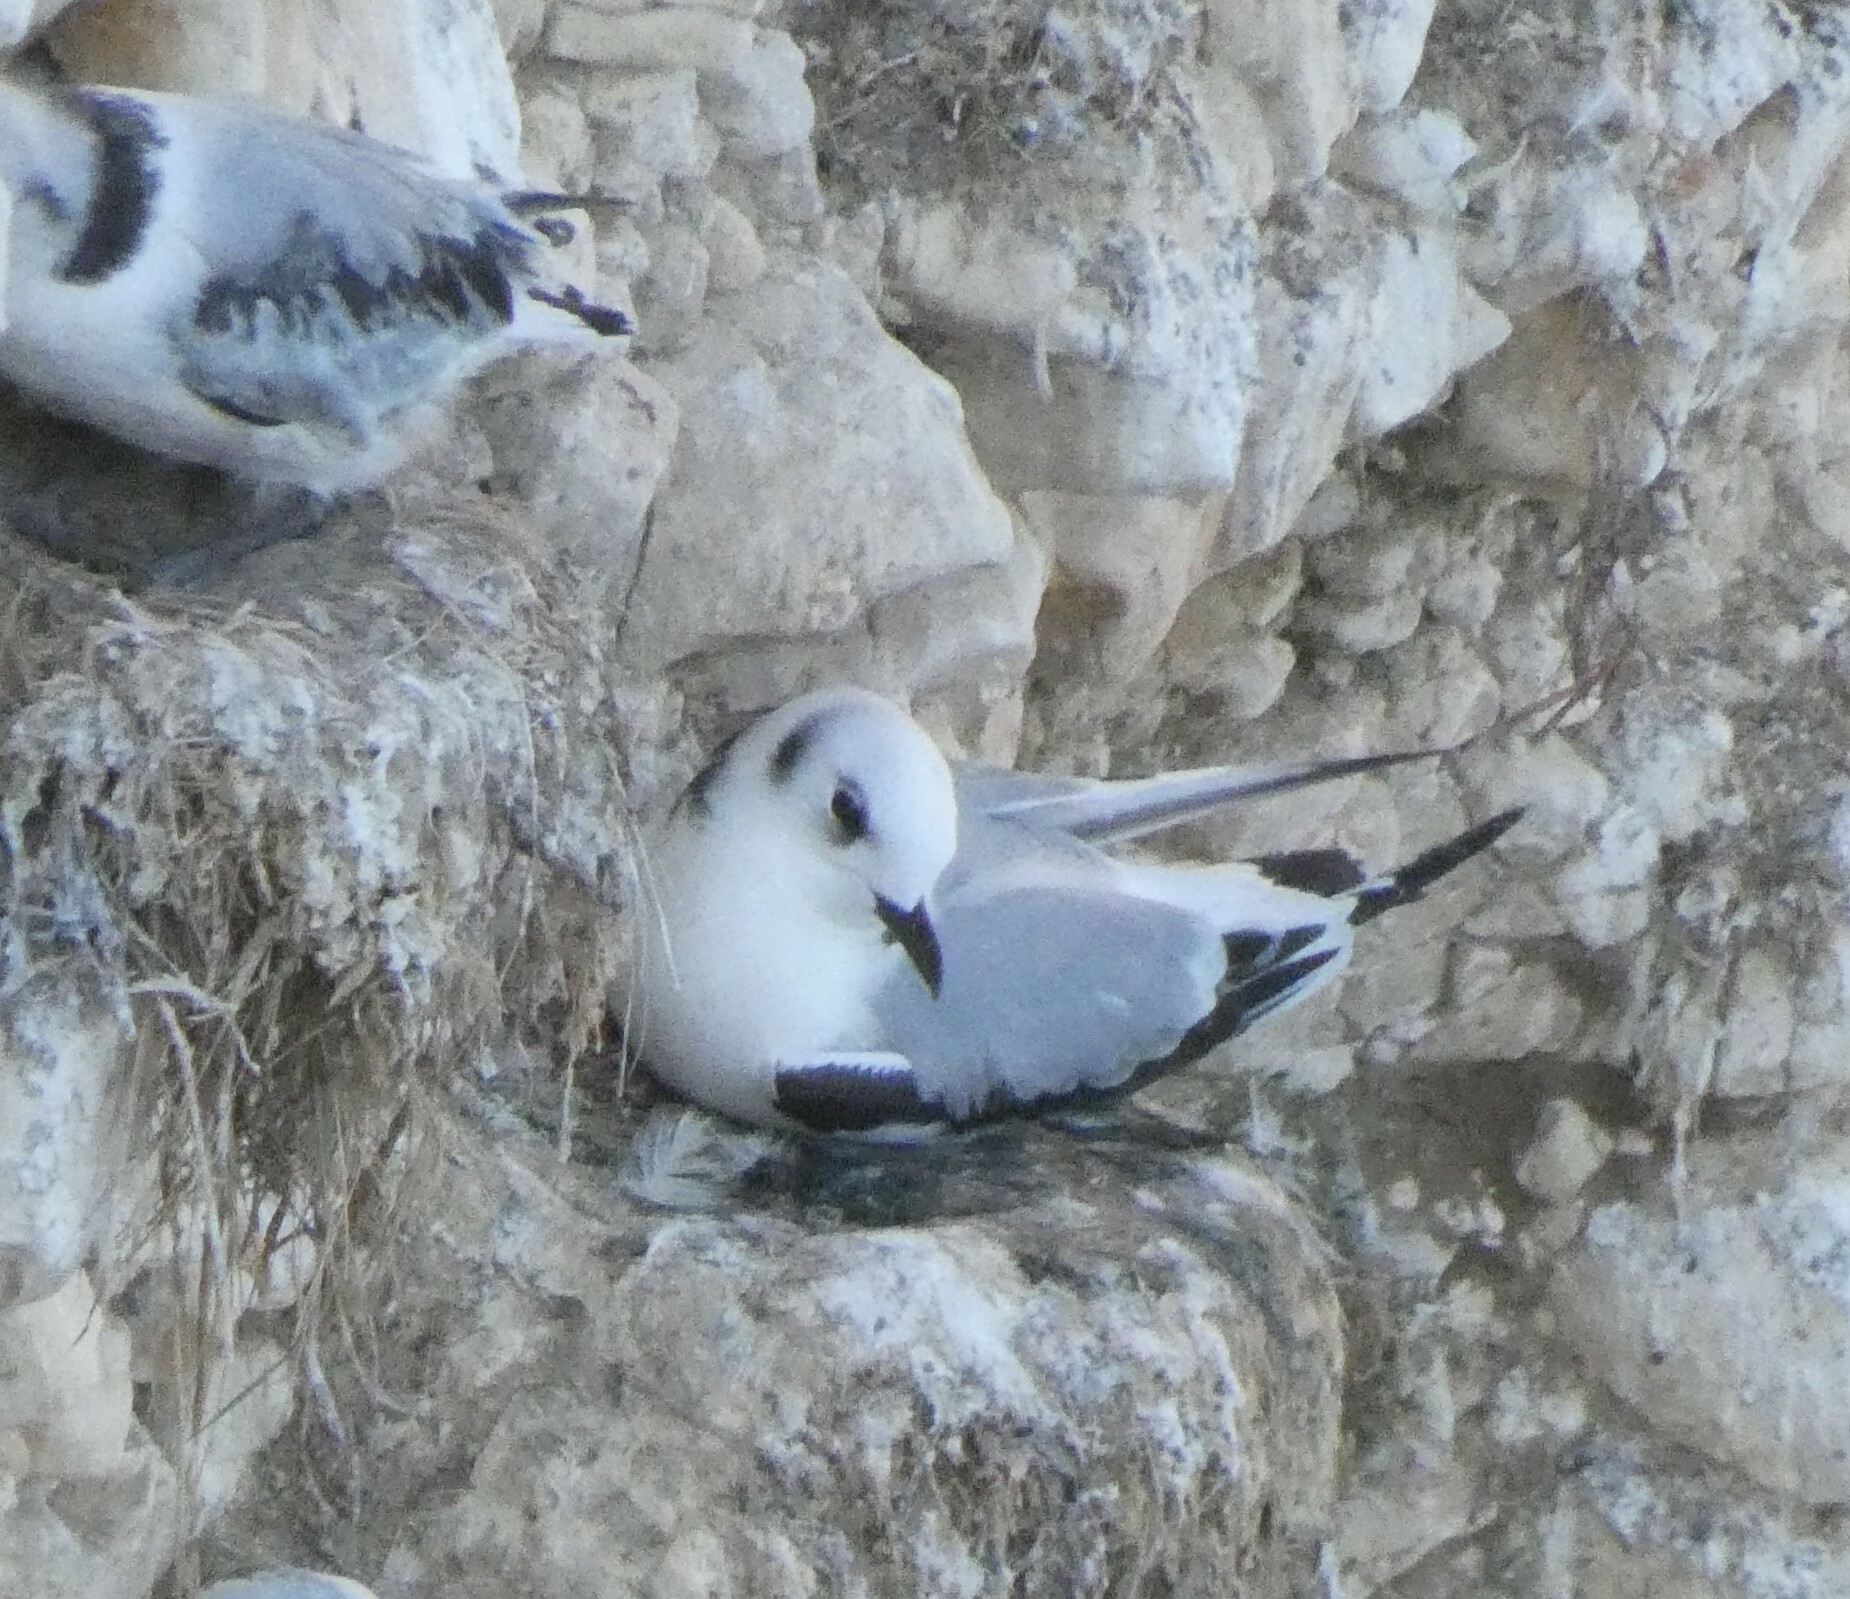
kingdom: Animalia
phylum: Chordata
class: Aves
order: Charadriiformes
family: Laridae
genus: Rissa
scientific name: Rissa tridactyla
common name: Black-legged kittiwake
